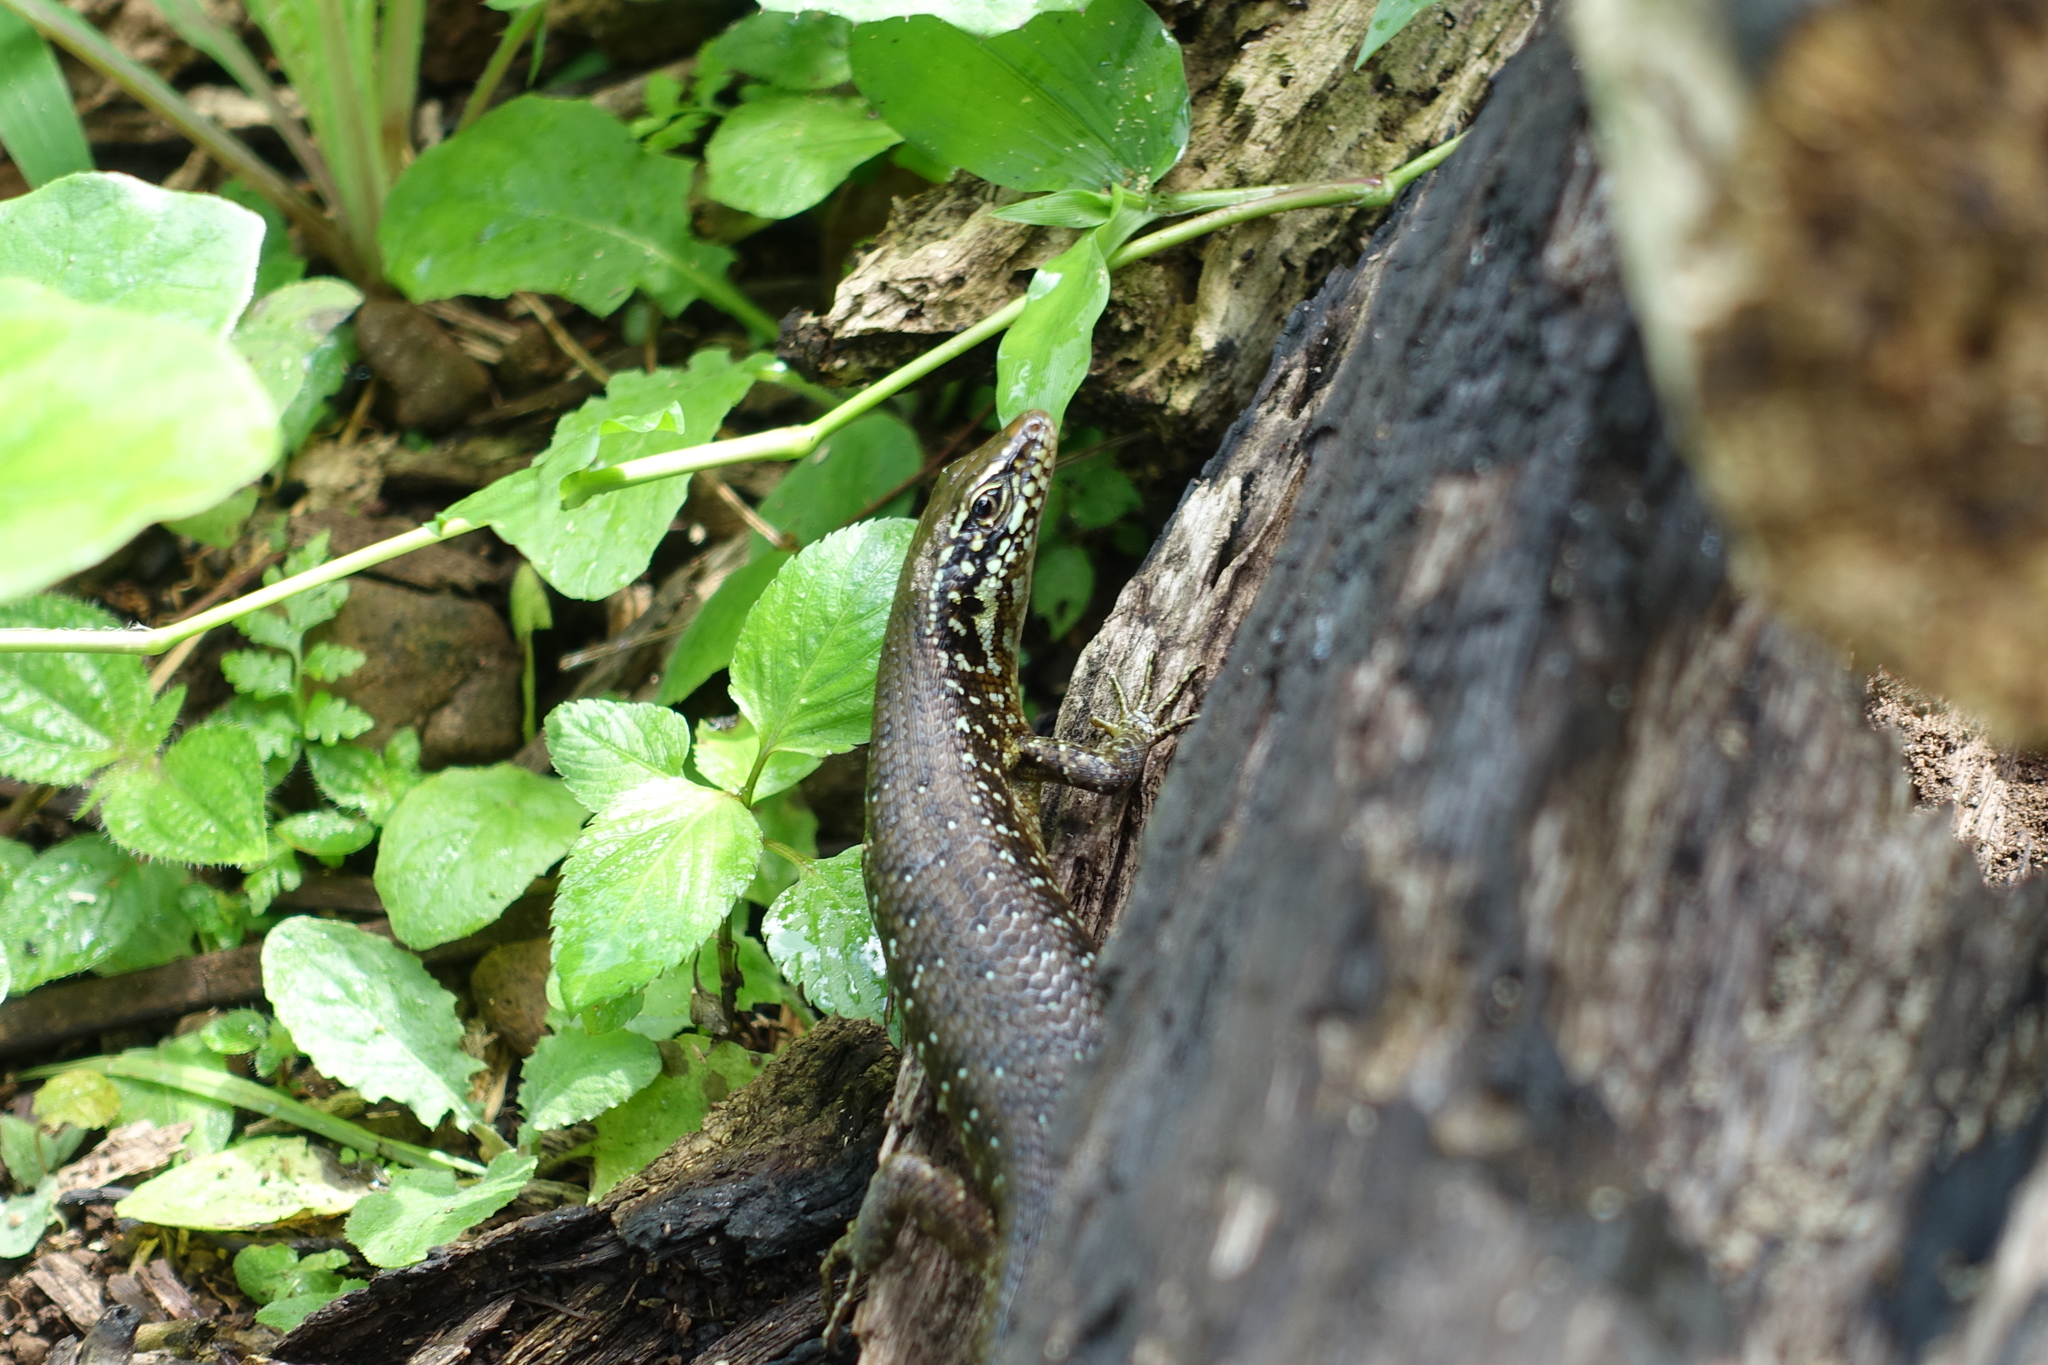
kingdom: Animalia
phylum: Chordata
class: Squamata
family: Scincidae
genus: Trachylepis
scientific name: Trachylepis comorensis
